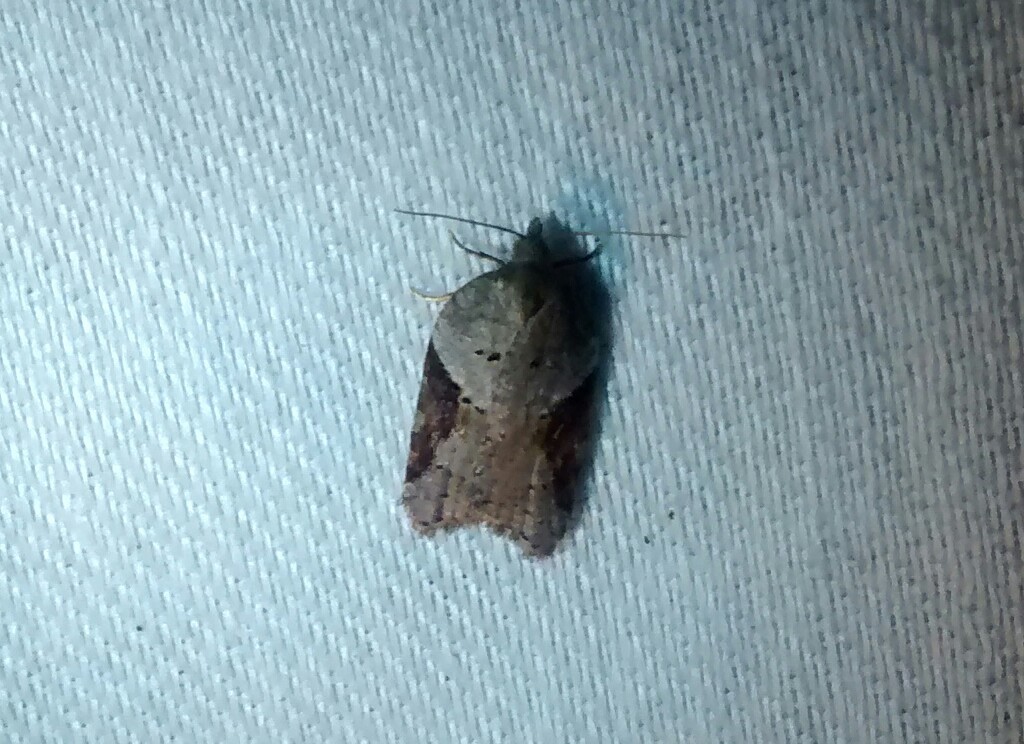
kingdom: Animalia
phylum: Arthropoda
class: Insecta
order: Lepidoptera
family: Tortricidae
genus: Acleris
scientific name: Acleris macdunnoughi
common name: Macdunnough's acleris
